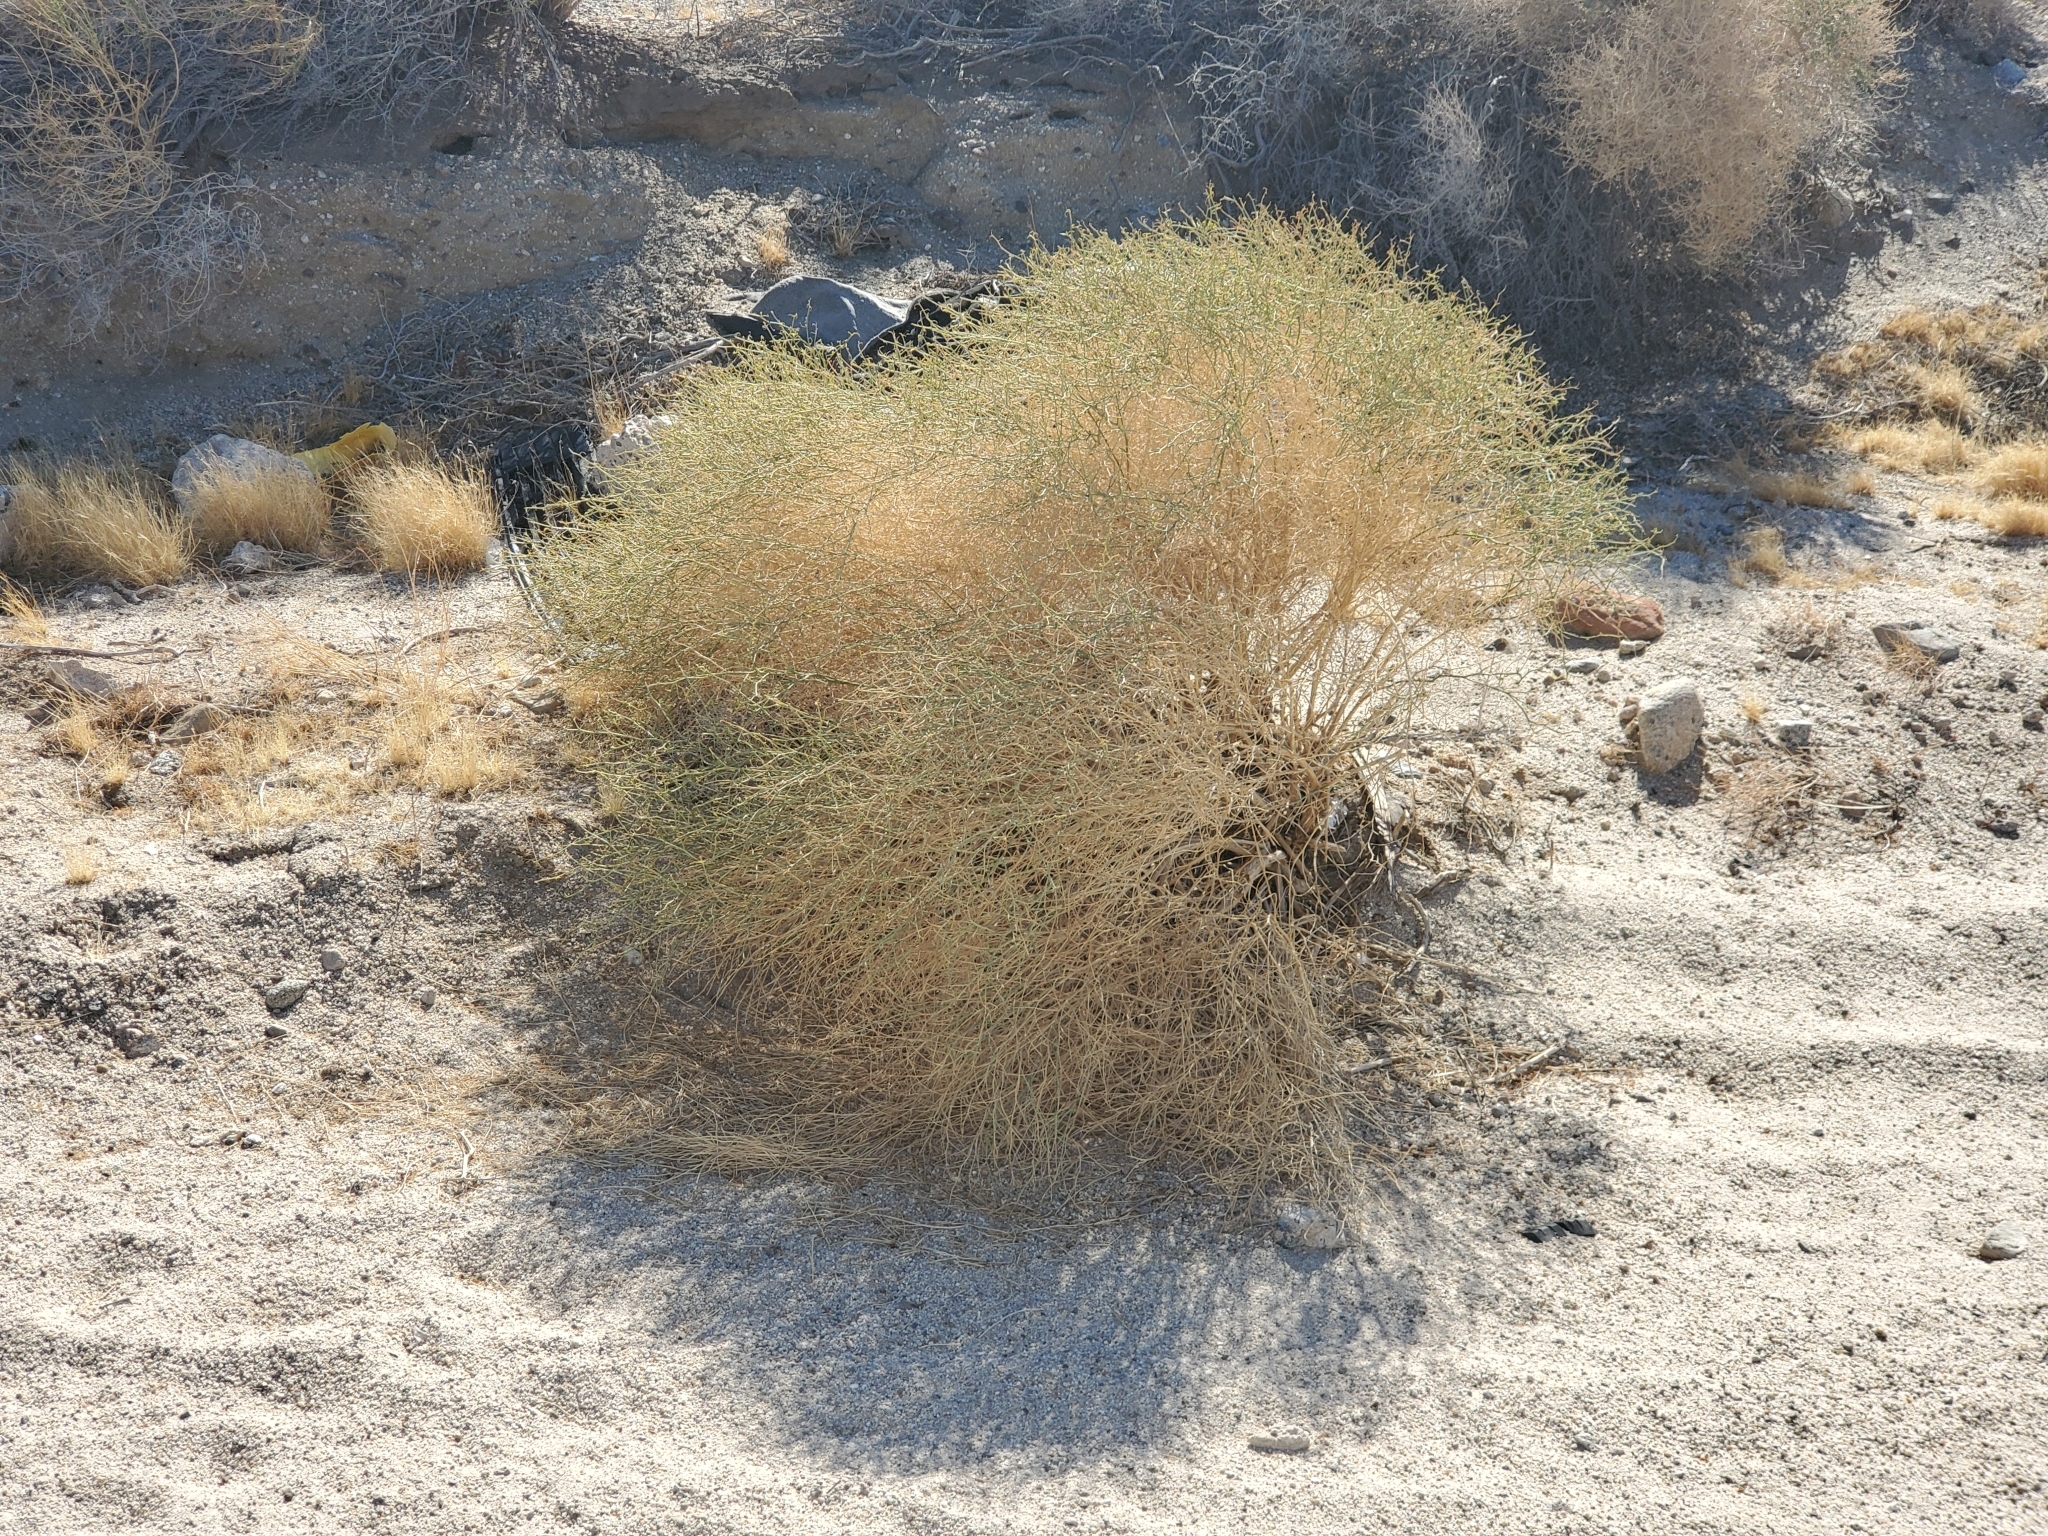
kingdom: Plantae
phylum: Tracheophyta
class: Magnoliopsida
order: Asterales
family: Asteraceae
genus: Ambrosia
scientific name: Ambrosia salsola
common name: Burrobrush
